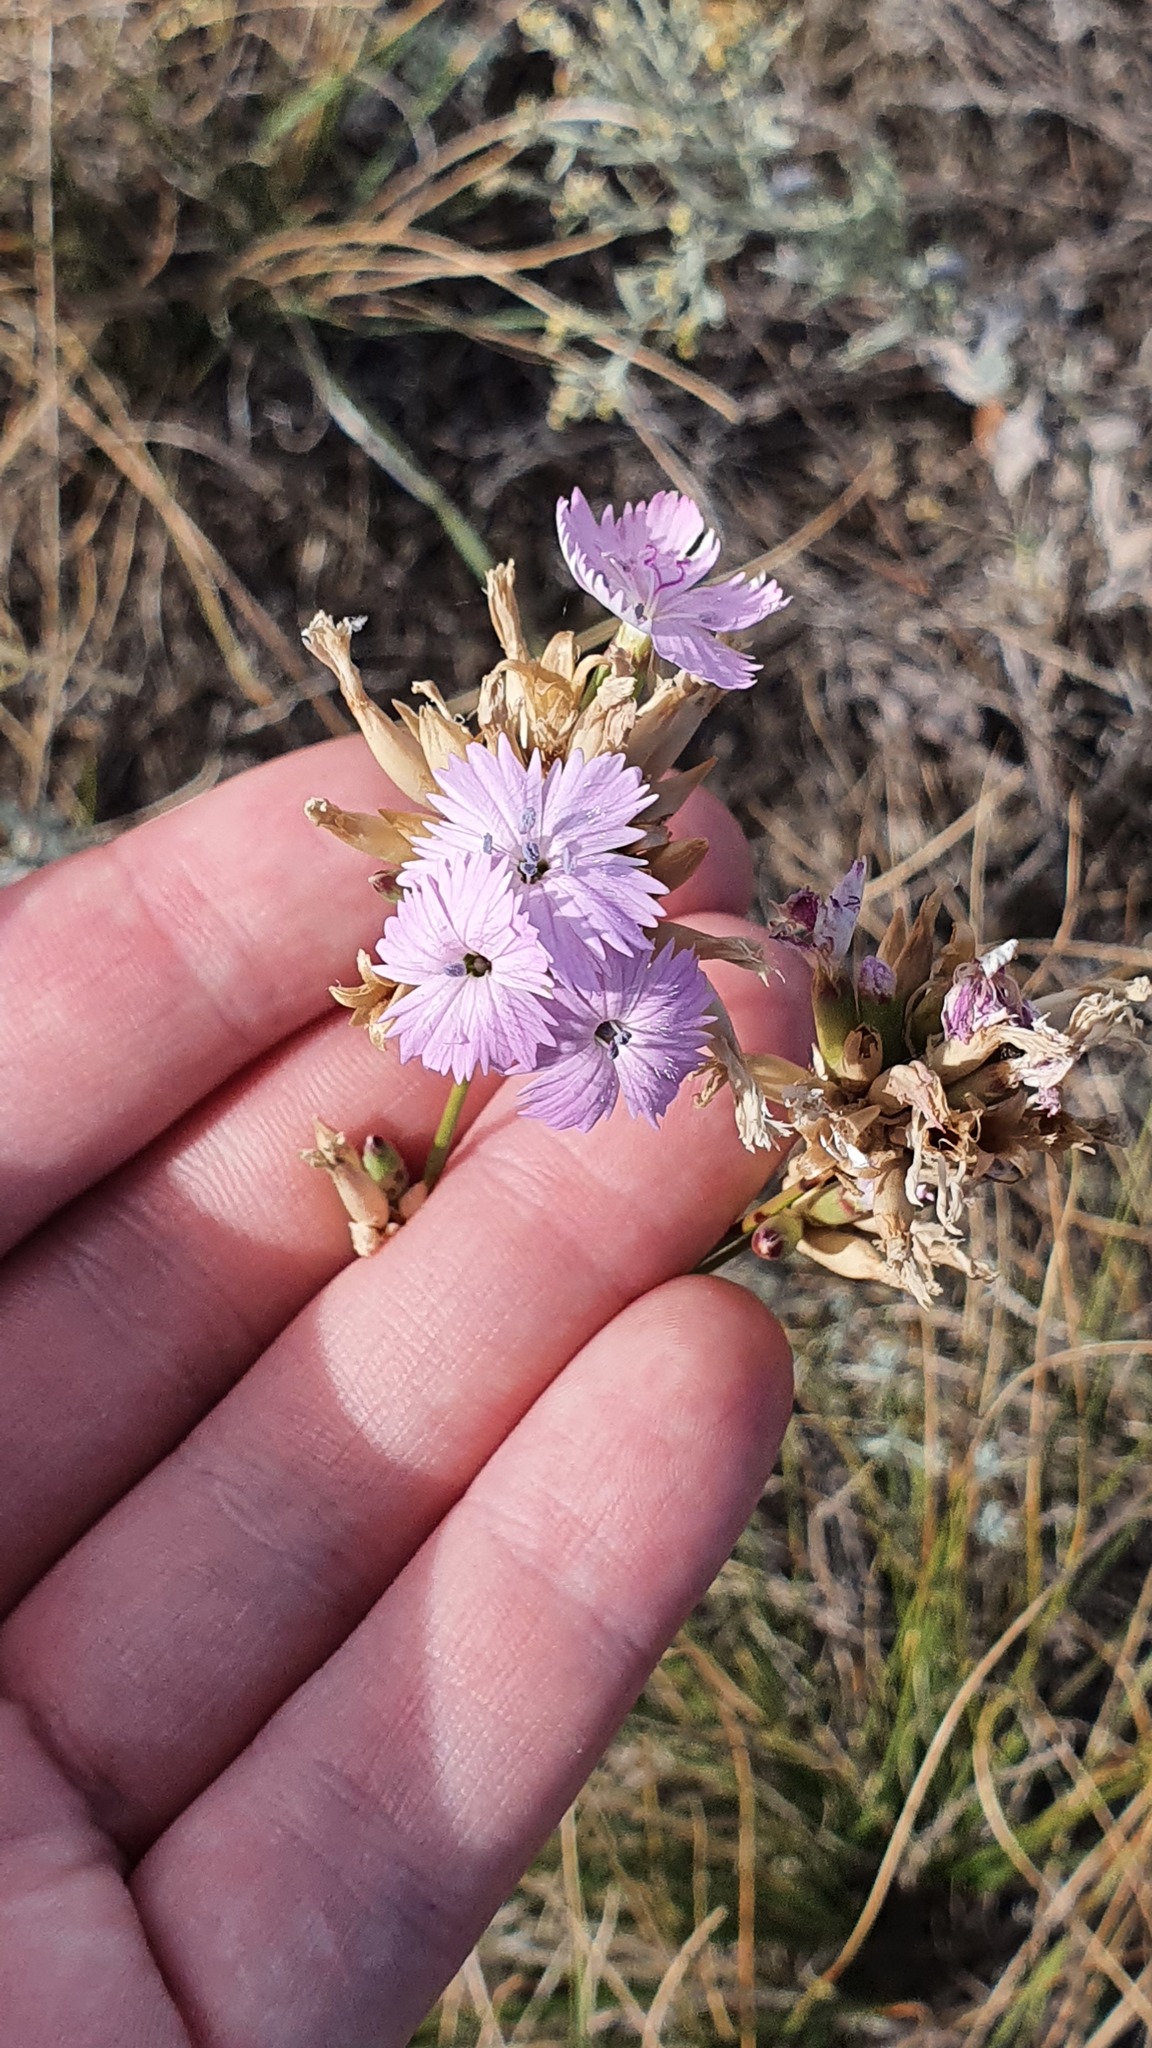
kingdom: Plantae
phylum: Tracheophyta
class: Magnoliopsida
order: Caryophyllales
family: Caryophyllaceae
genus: Dianthus
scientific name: Dianthus polymorphus
